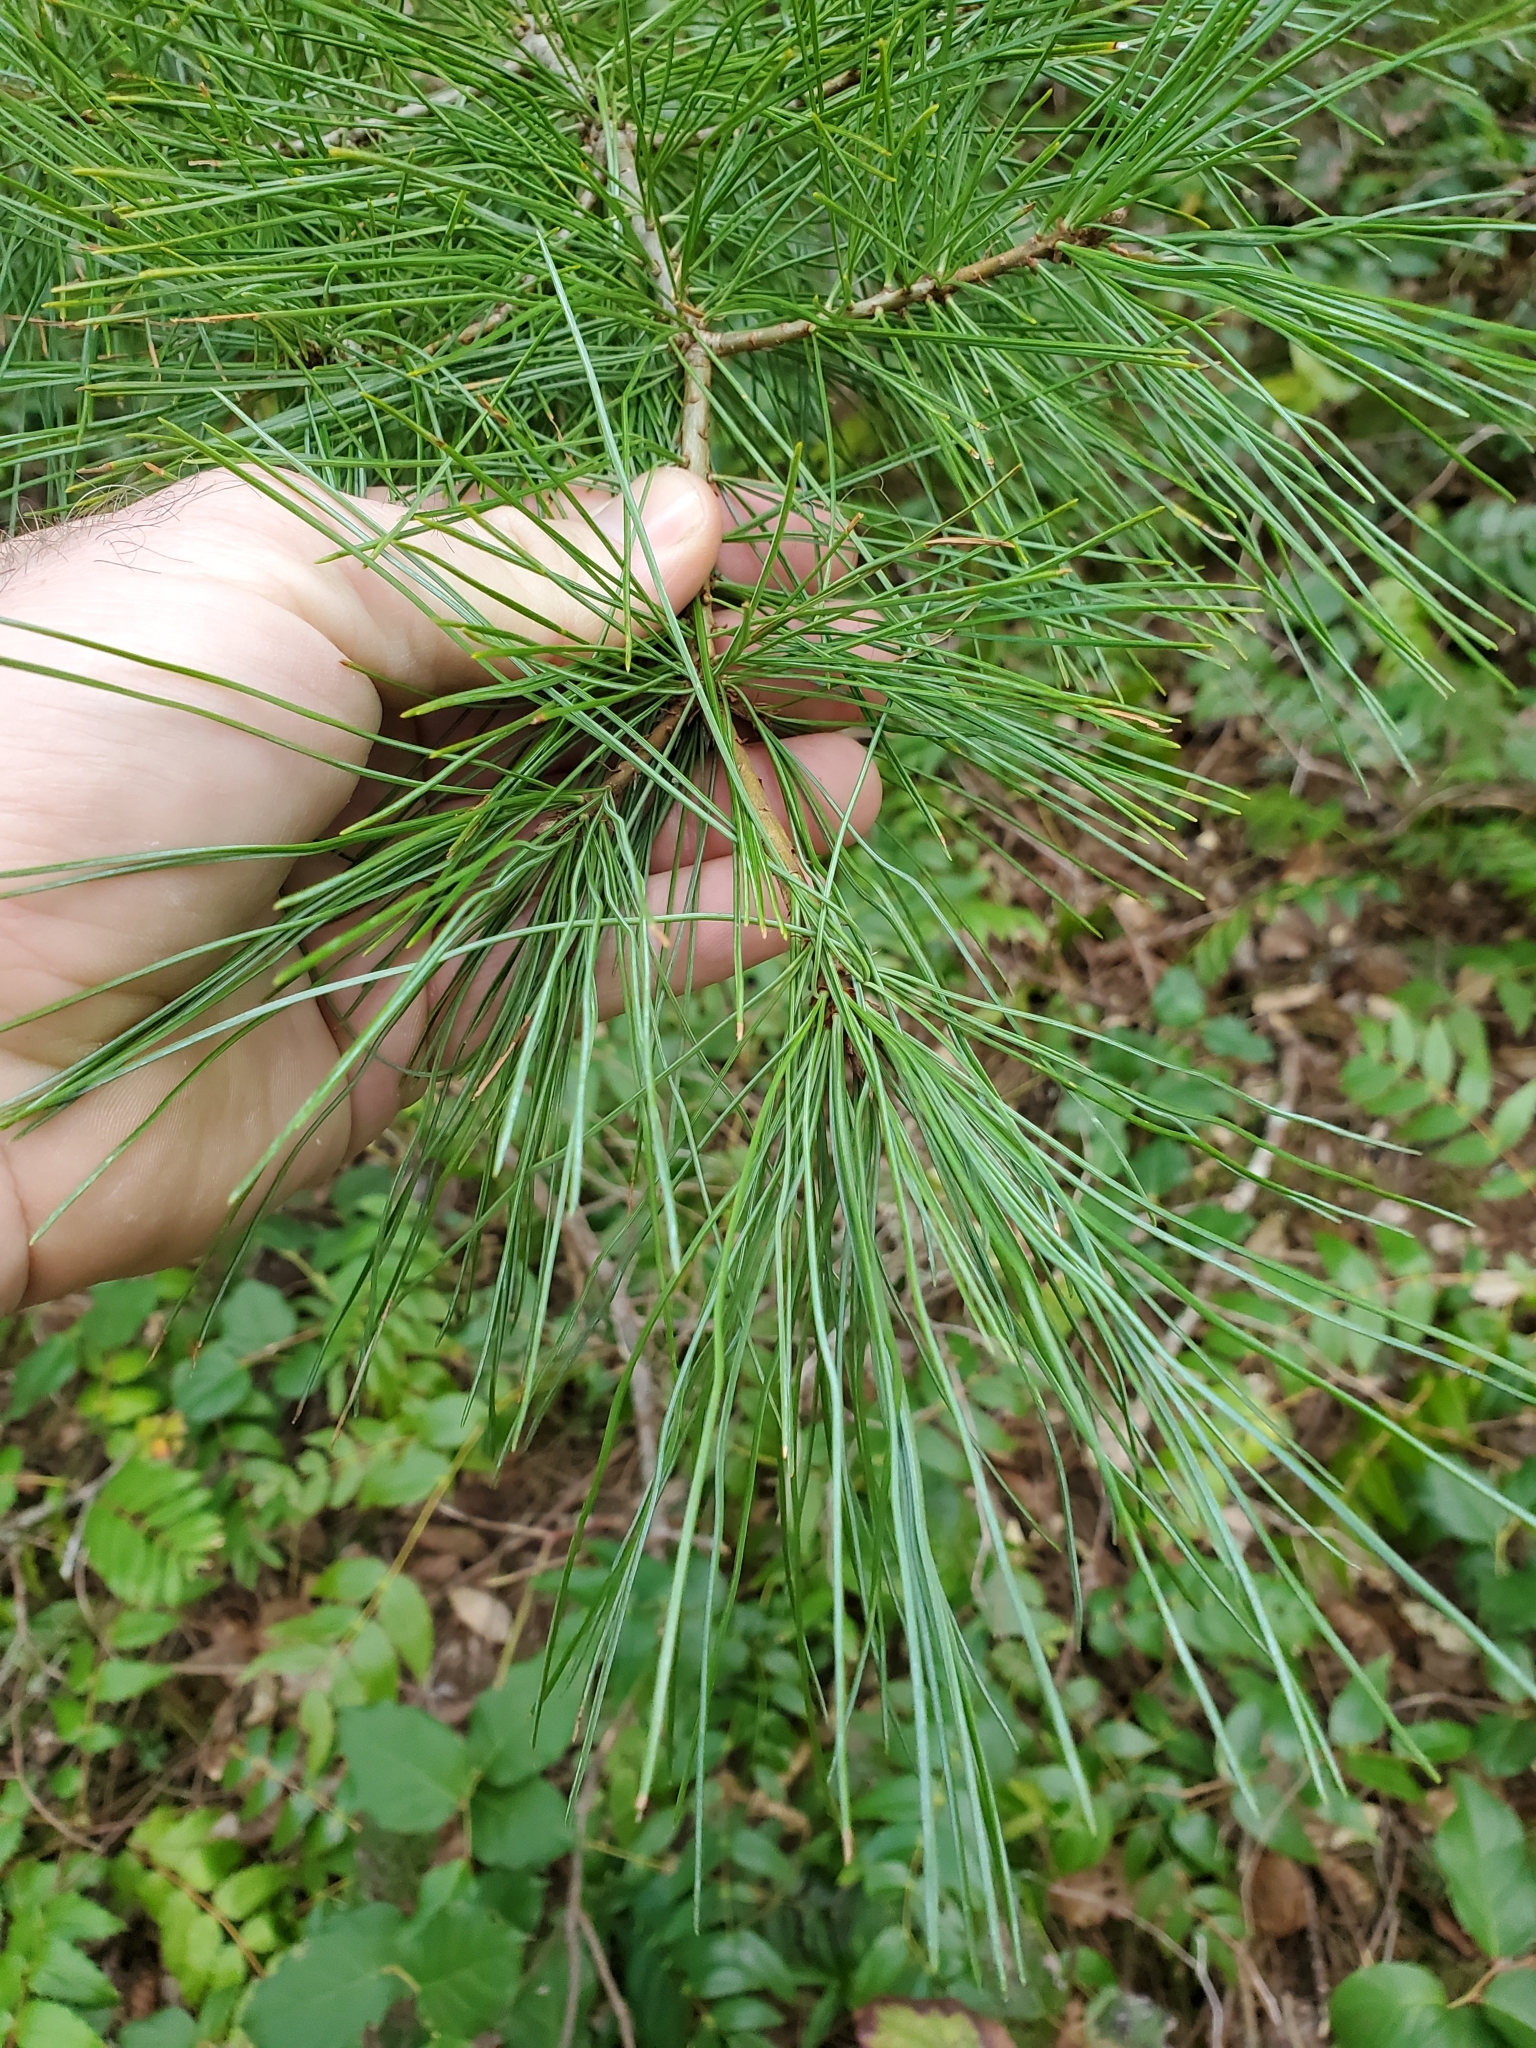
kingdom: Plantae
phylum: Tracheophyta
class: Pinopsida
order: Pinales
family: Pinaceae
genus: Pinus
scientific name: Pinus monticola
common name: Western white pine
